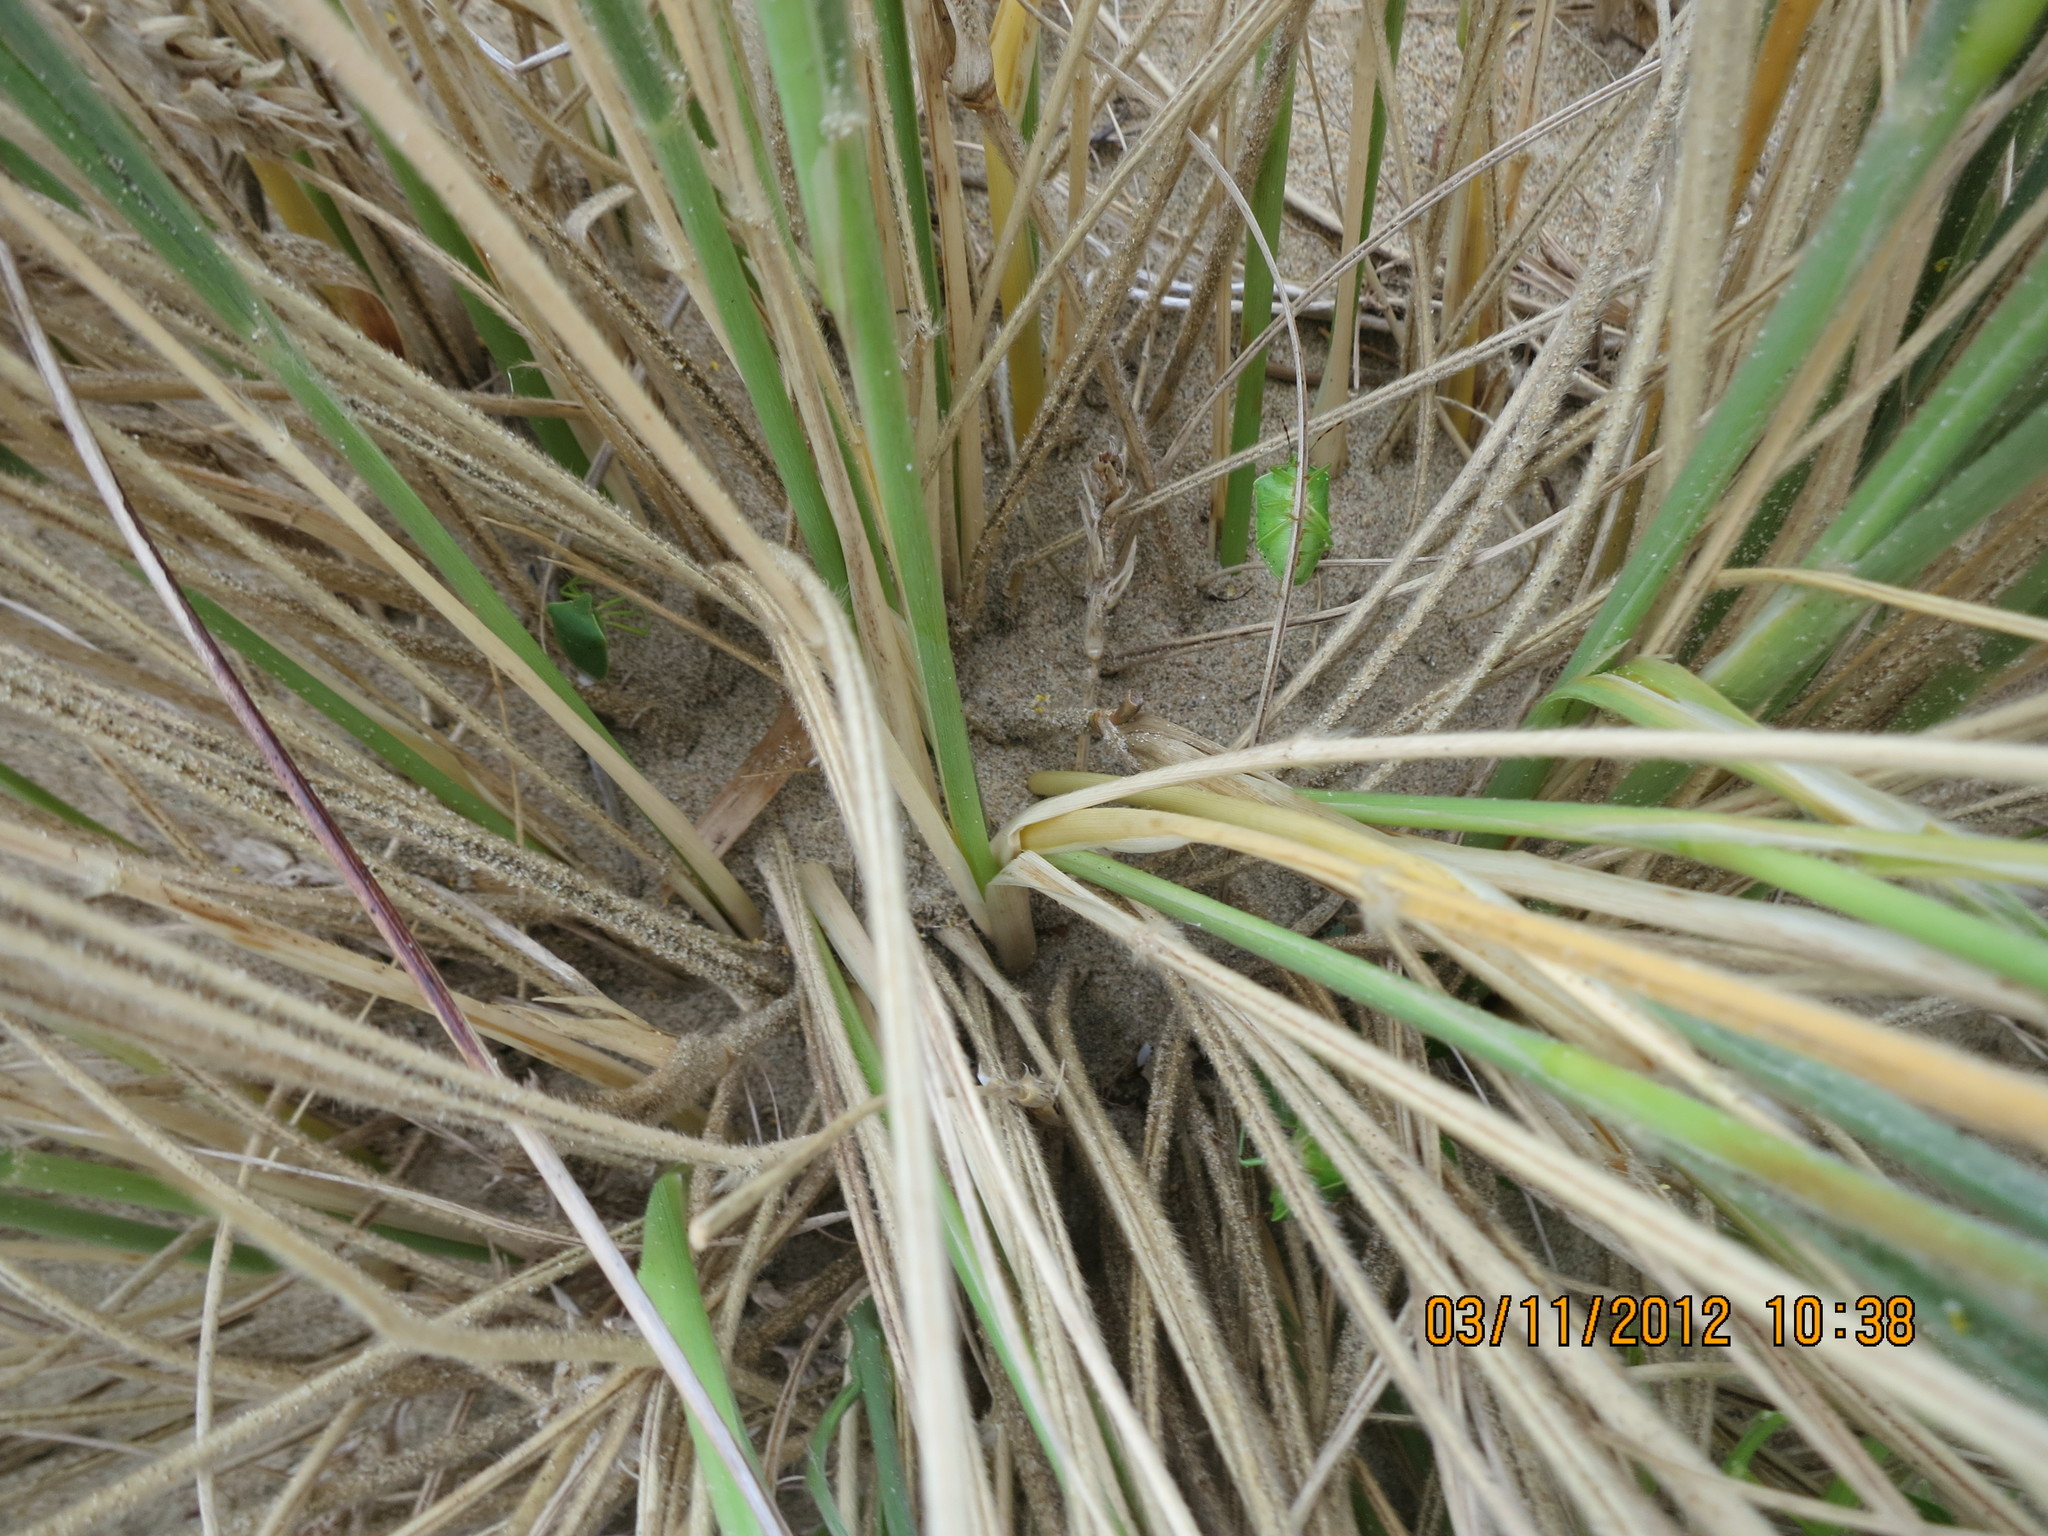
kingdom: Animalia
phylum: Arthropoda
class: Insecta
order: Hemiptera
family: Pentatomidae
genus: Nezara
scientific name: Nezara viridula
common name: Southern green stink bug
